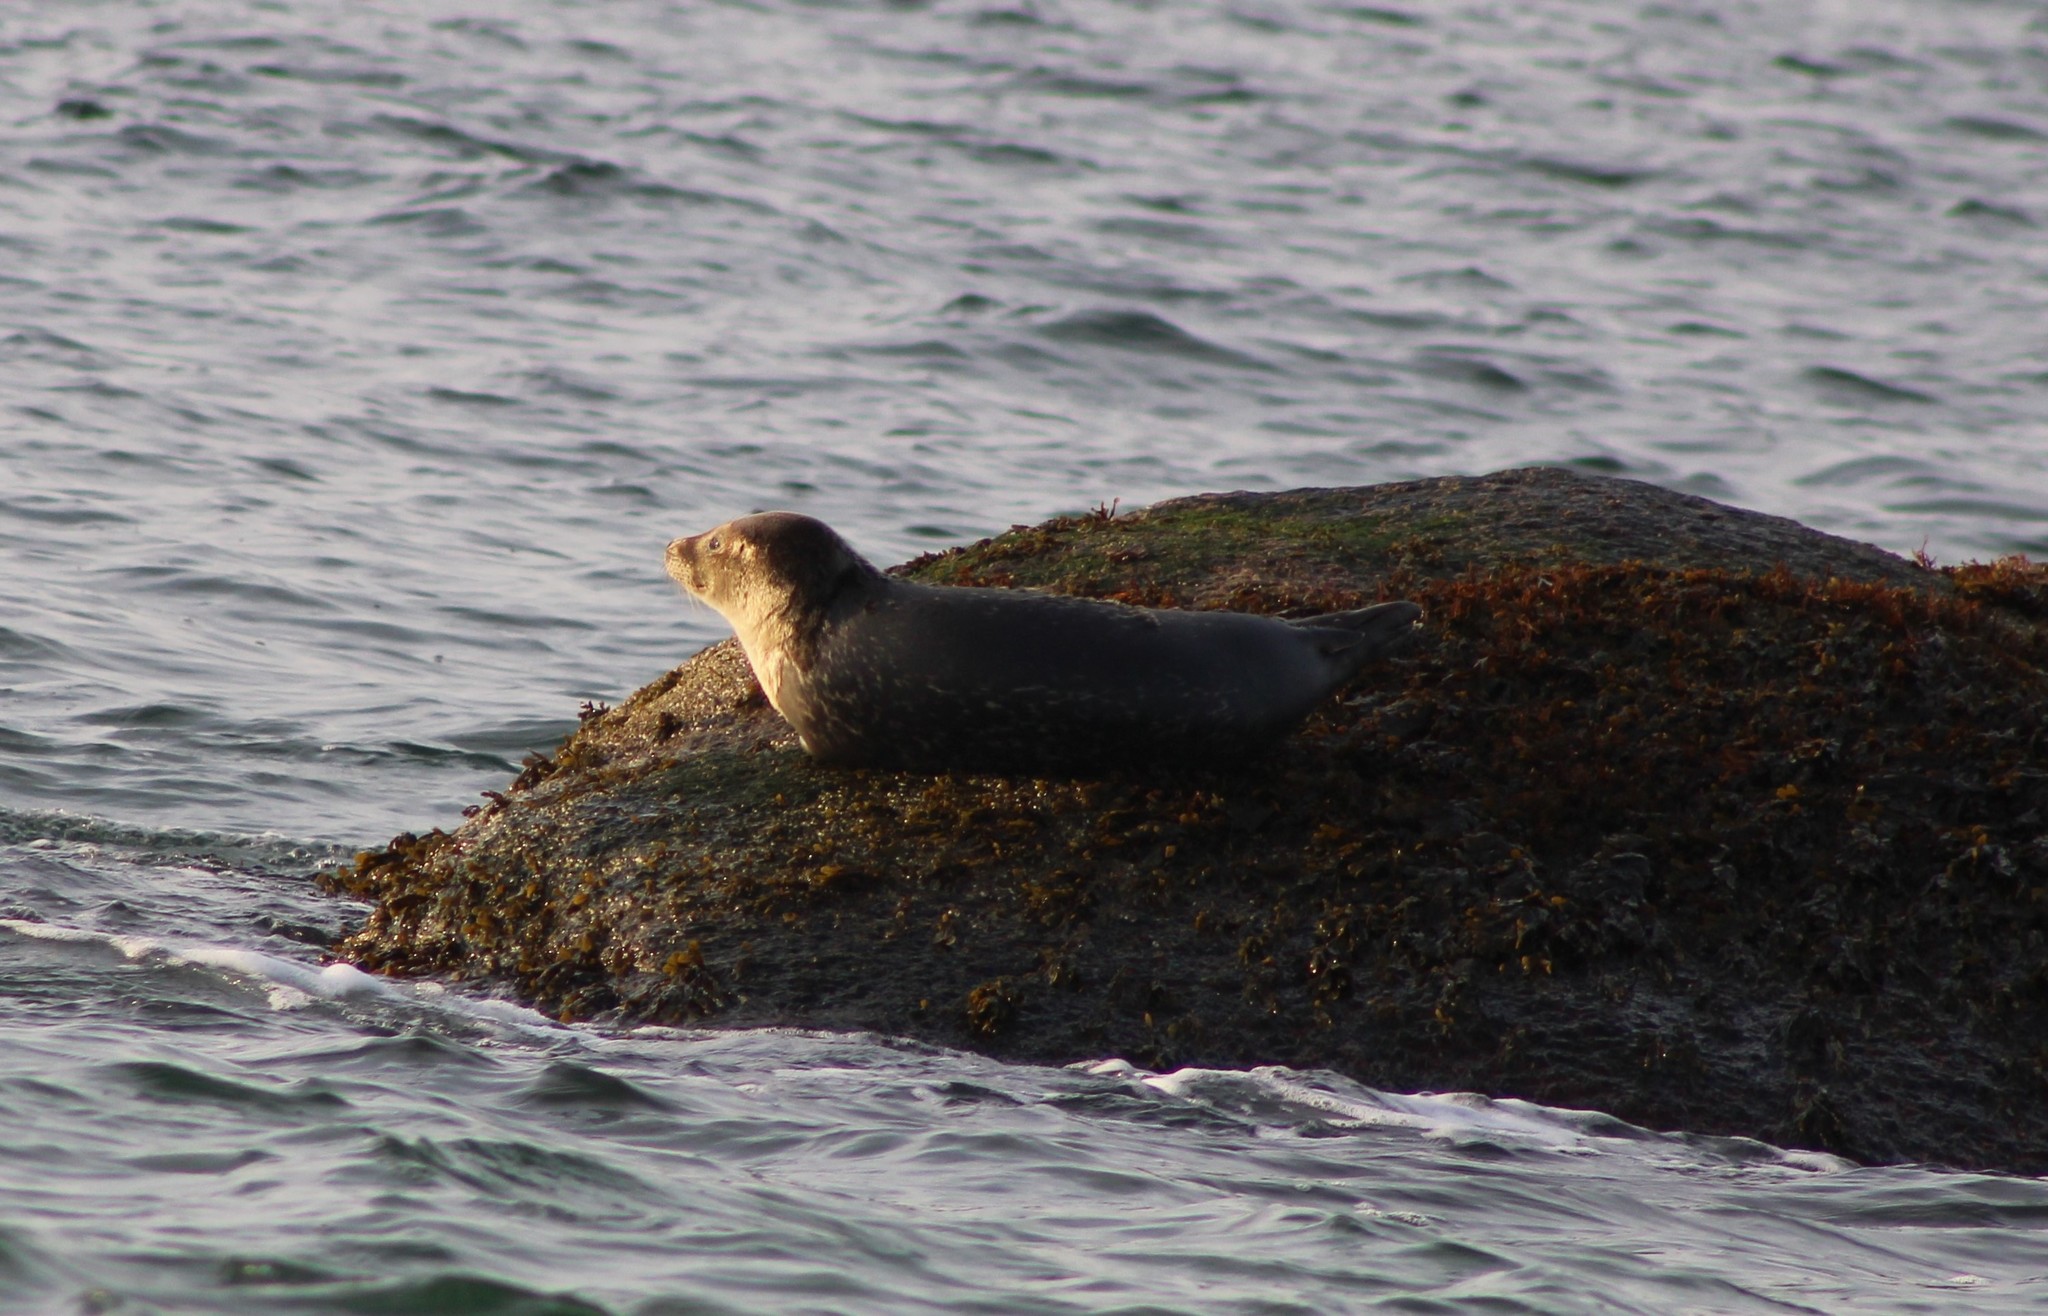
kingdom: Animalia
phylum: Chordata
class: Mammalia
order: Carnivora
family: Phocidae
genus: Phoca
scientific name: Phoca vitulina
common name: Harbor seal
